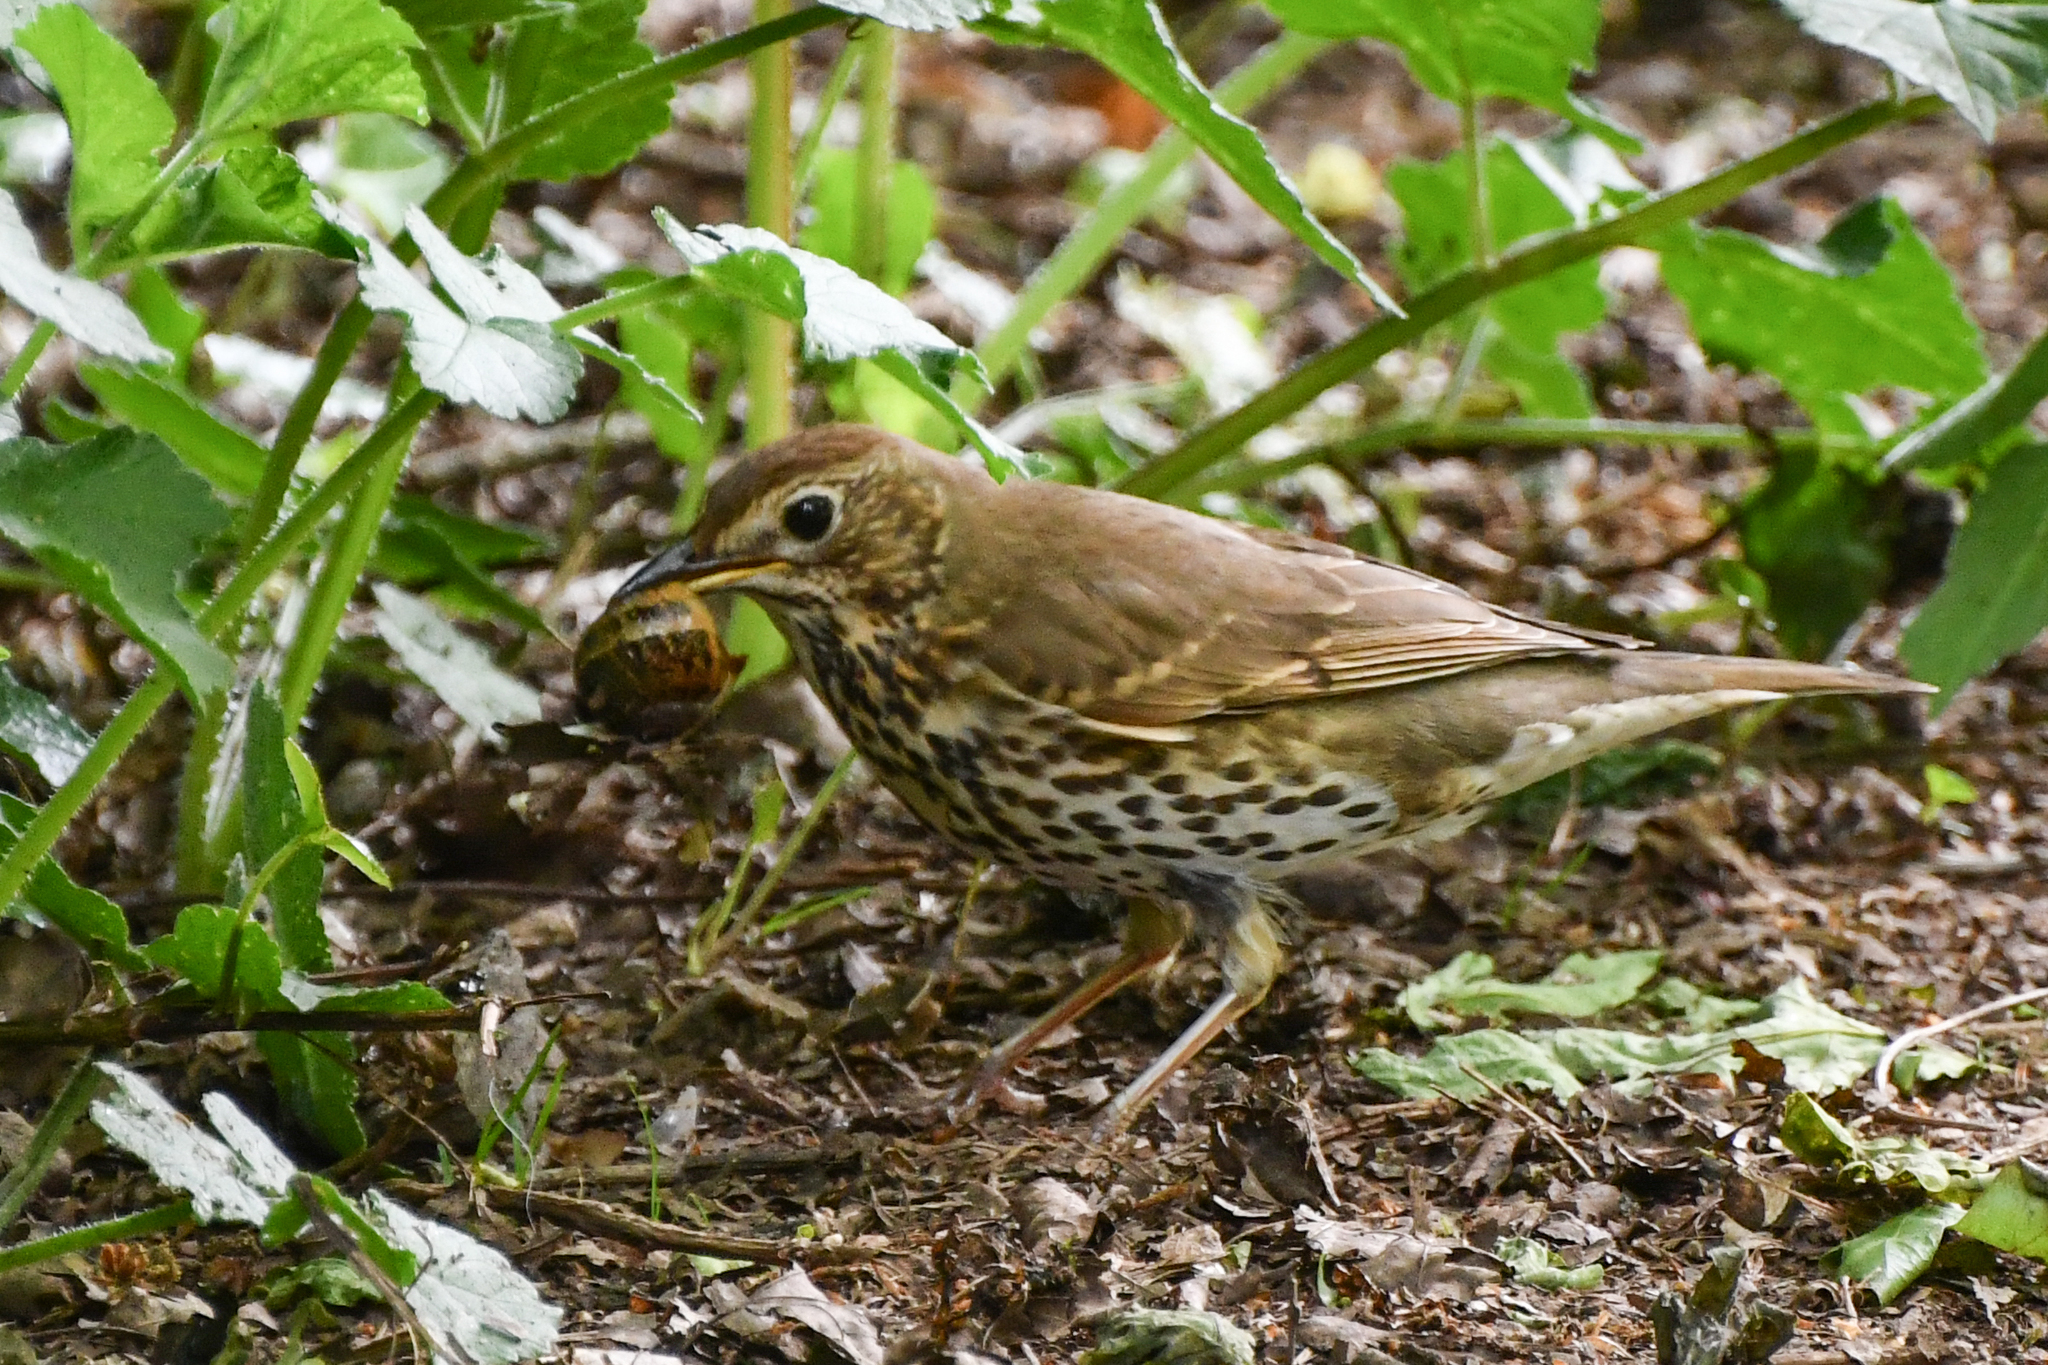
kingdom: Animalia
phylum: Chordata
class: Aves
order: Passeriformes
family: Turdidae
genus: Turdus
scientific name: Turdus philomelos
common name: Song thrush
